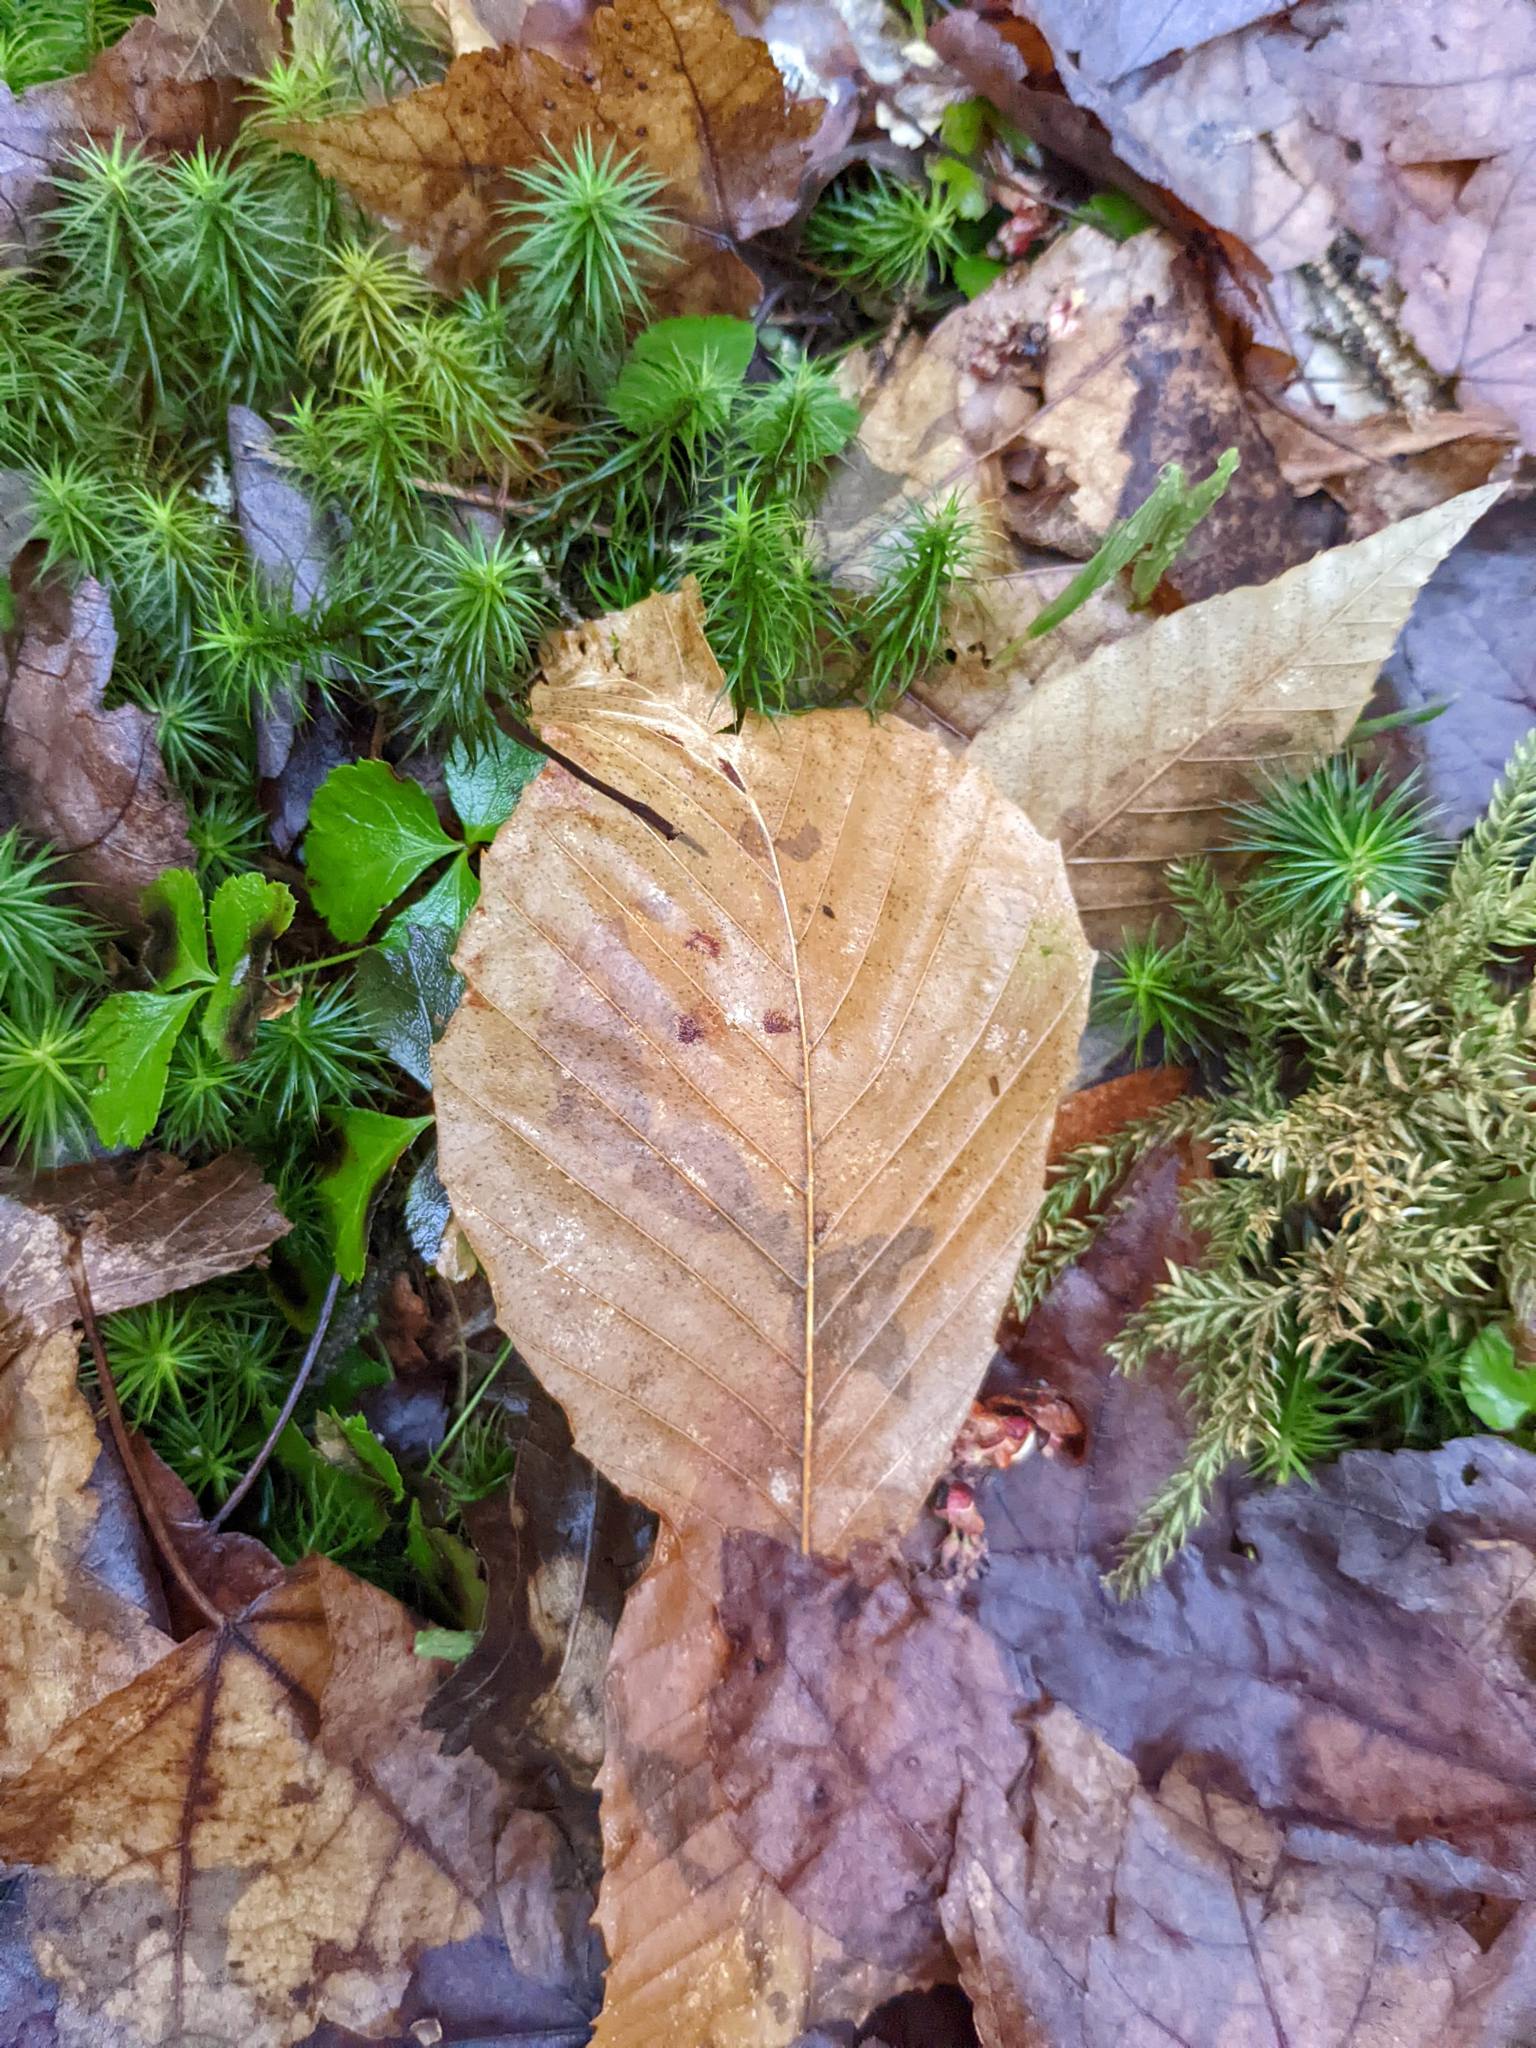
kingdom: Plantae
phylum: Tracheophyta
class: Magnoliopsida
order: Fagales
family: Fagaceae
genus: Fagus
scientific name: Fagus grandifolia
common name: American beech
